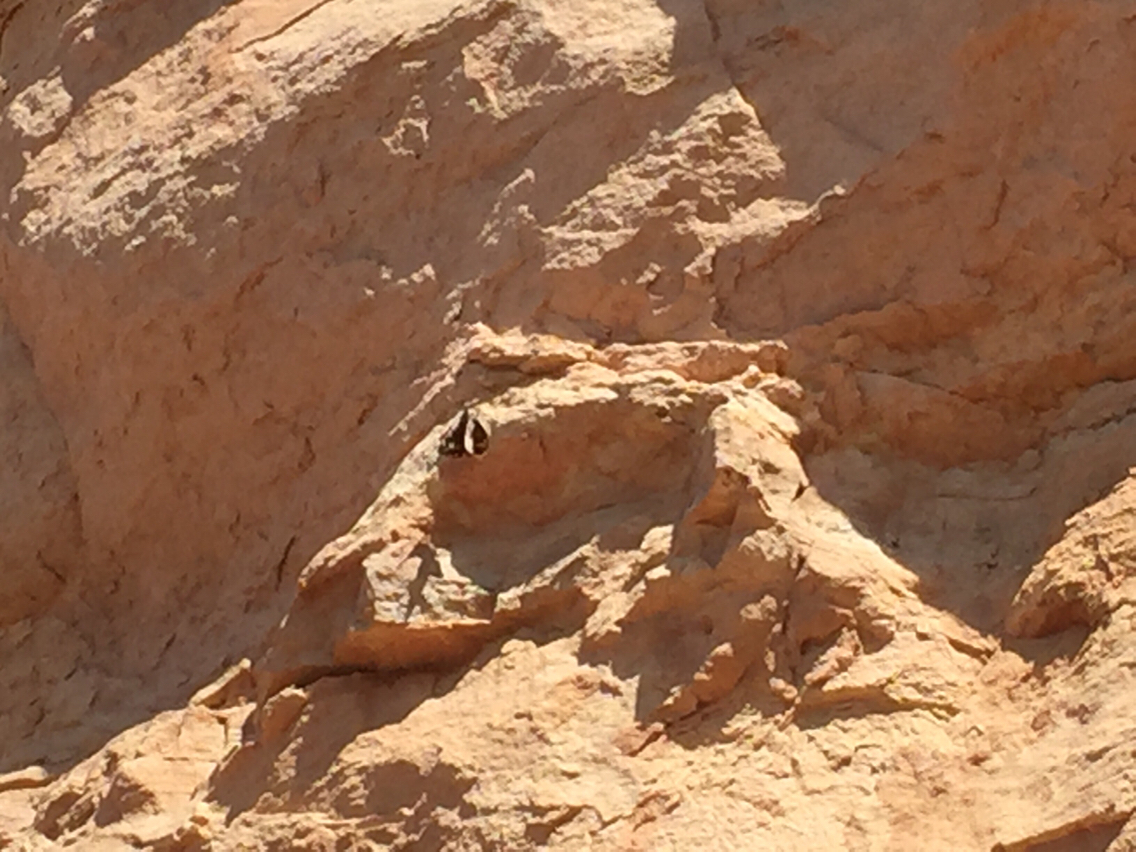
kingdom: Animalia
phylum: Arthropoda
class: Insecta
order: Lepidoptera
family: Hesperiidae
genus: Agathymus
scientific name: Agathymus alliae
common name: Mojave giant-skipper
